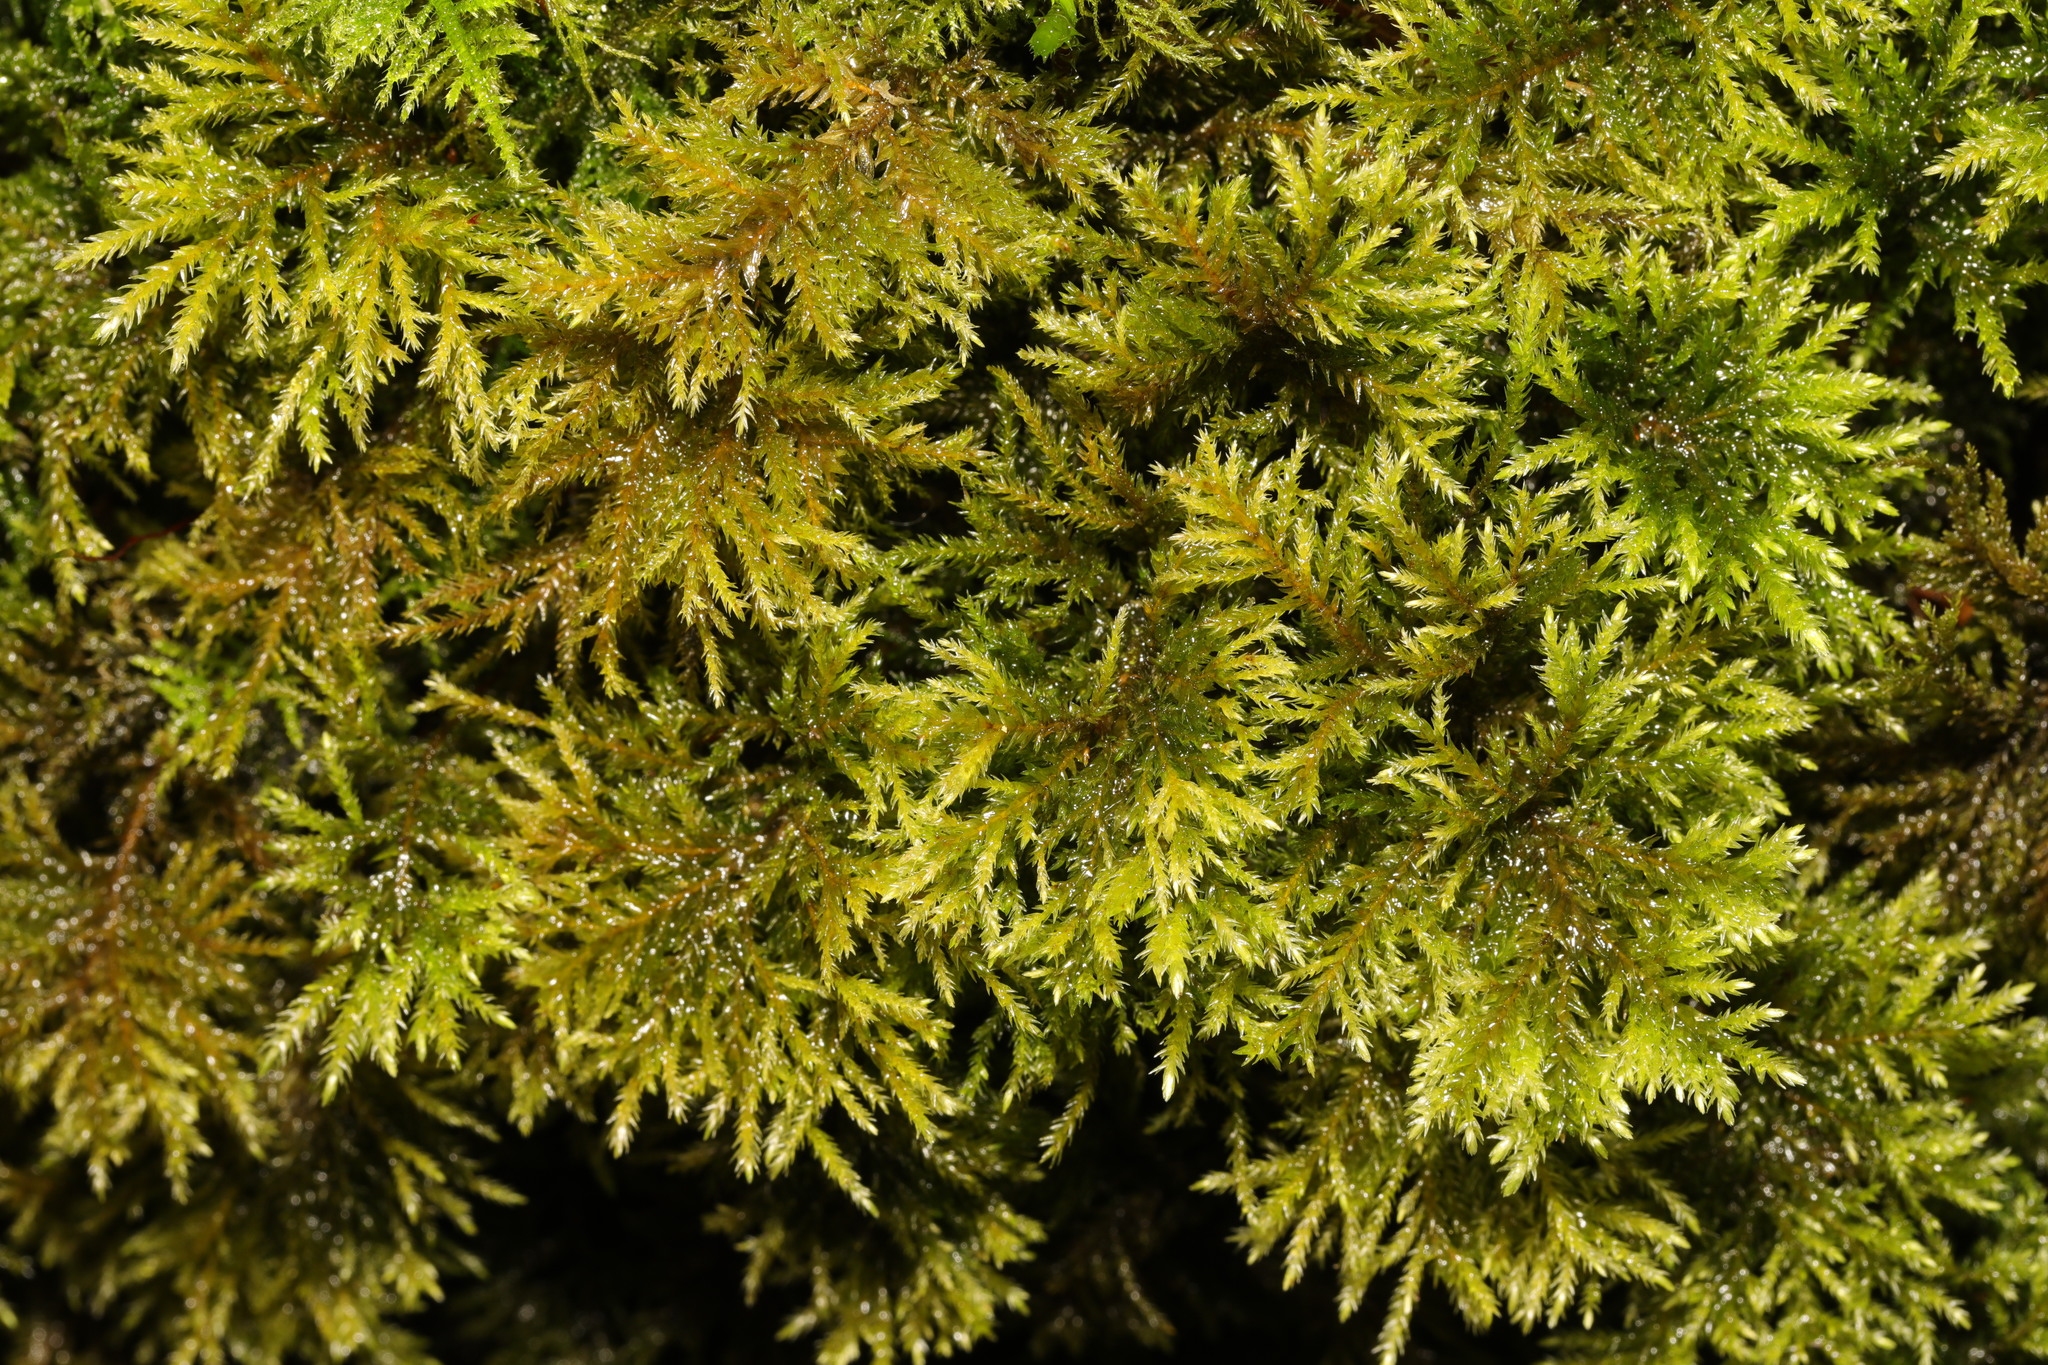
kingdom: Plantae
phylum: Bryophyta
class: Bryopsida
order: Hypnales
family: Neckeraceae
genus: Thamnobryum
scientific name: Thamnobryum alopecurum
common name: Fox-tail feather-moss
